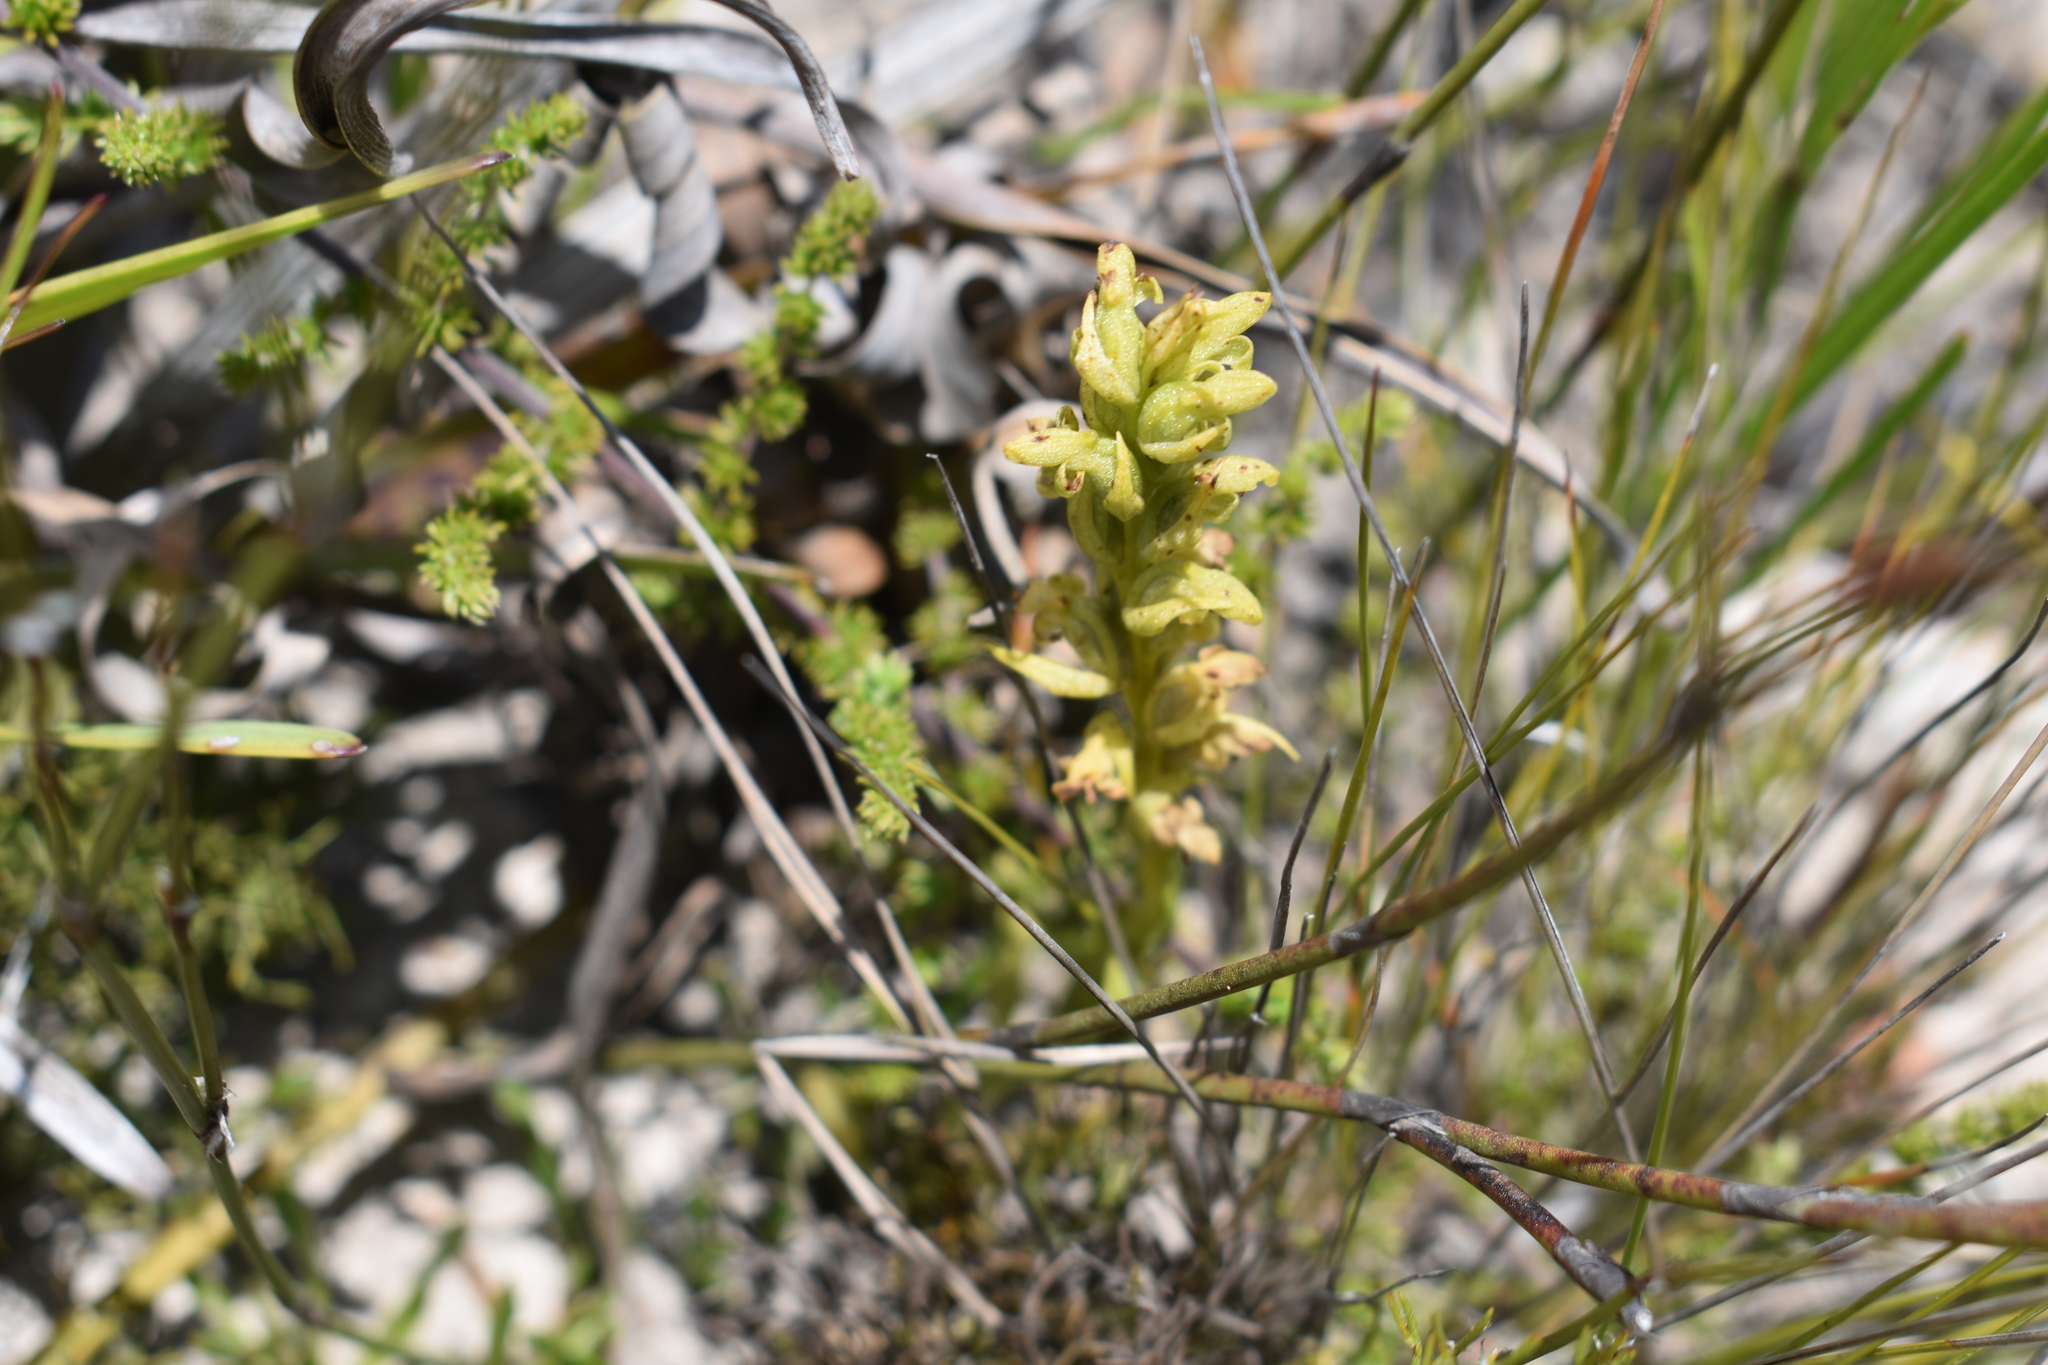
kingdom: Plantae
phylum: Tracheophyta
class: Liliopsida
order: Asparagales
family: Orchidaceae
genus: Disa
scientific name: Disa cylindrica
